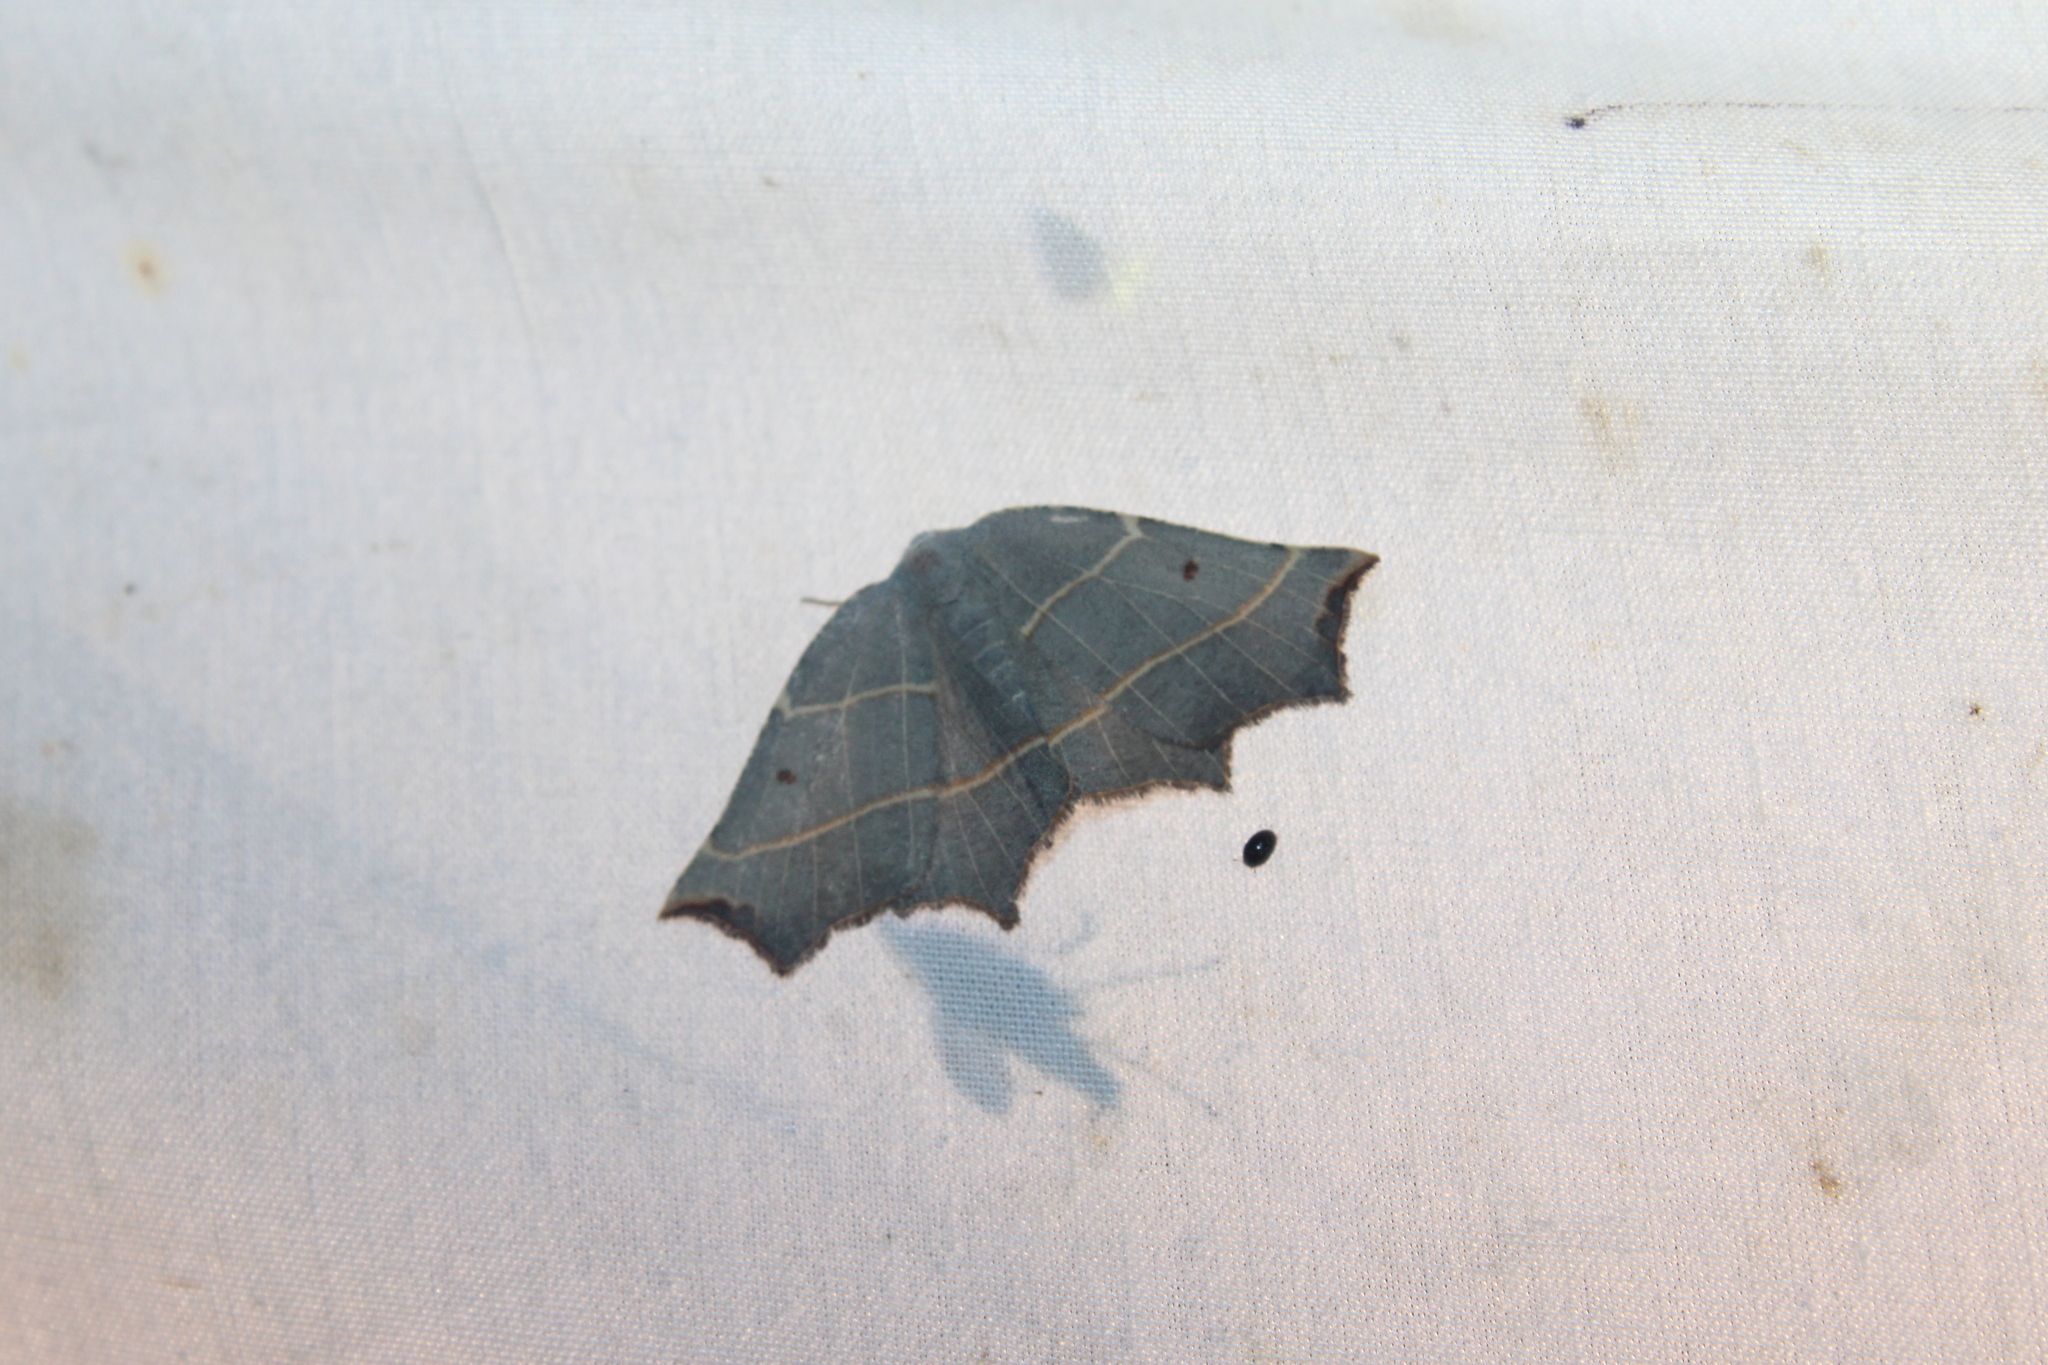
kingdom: Animalia
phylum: Arthropoda
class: Insecta
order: Lepidoptera
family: Geometridae
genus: Metanema
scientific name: Metanema inatomaria
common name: Pale metanema
